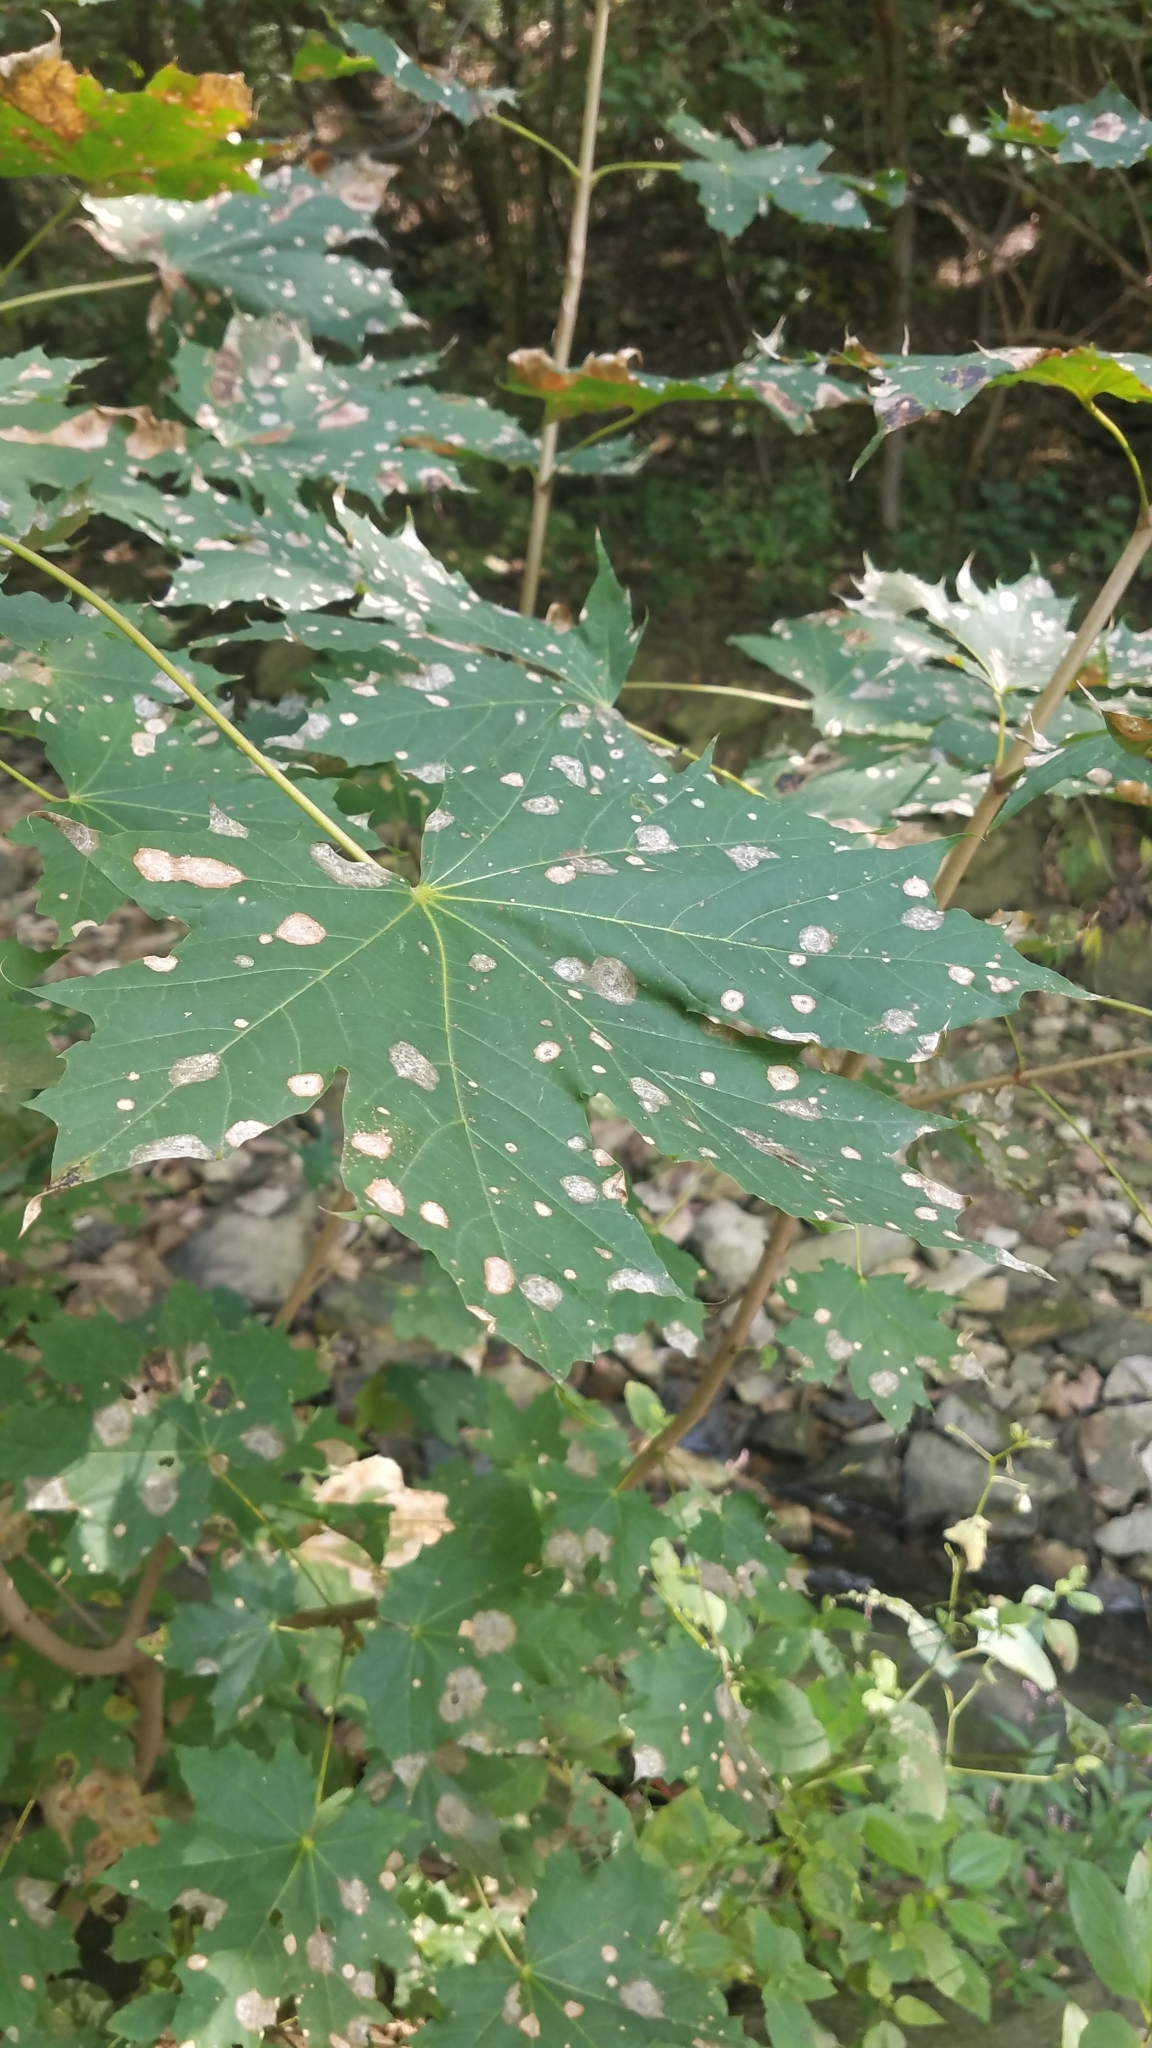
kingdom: Plantae
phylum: Tracheophyta
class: Magnoliopsida
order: Sapindales
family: Sapindaceae
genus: Acer
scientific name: Acer platanoides
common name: Norway maple
